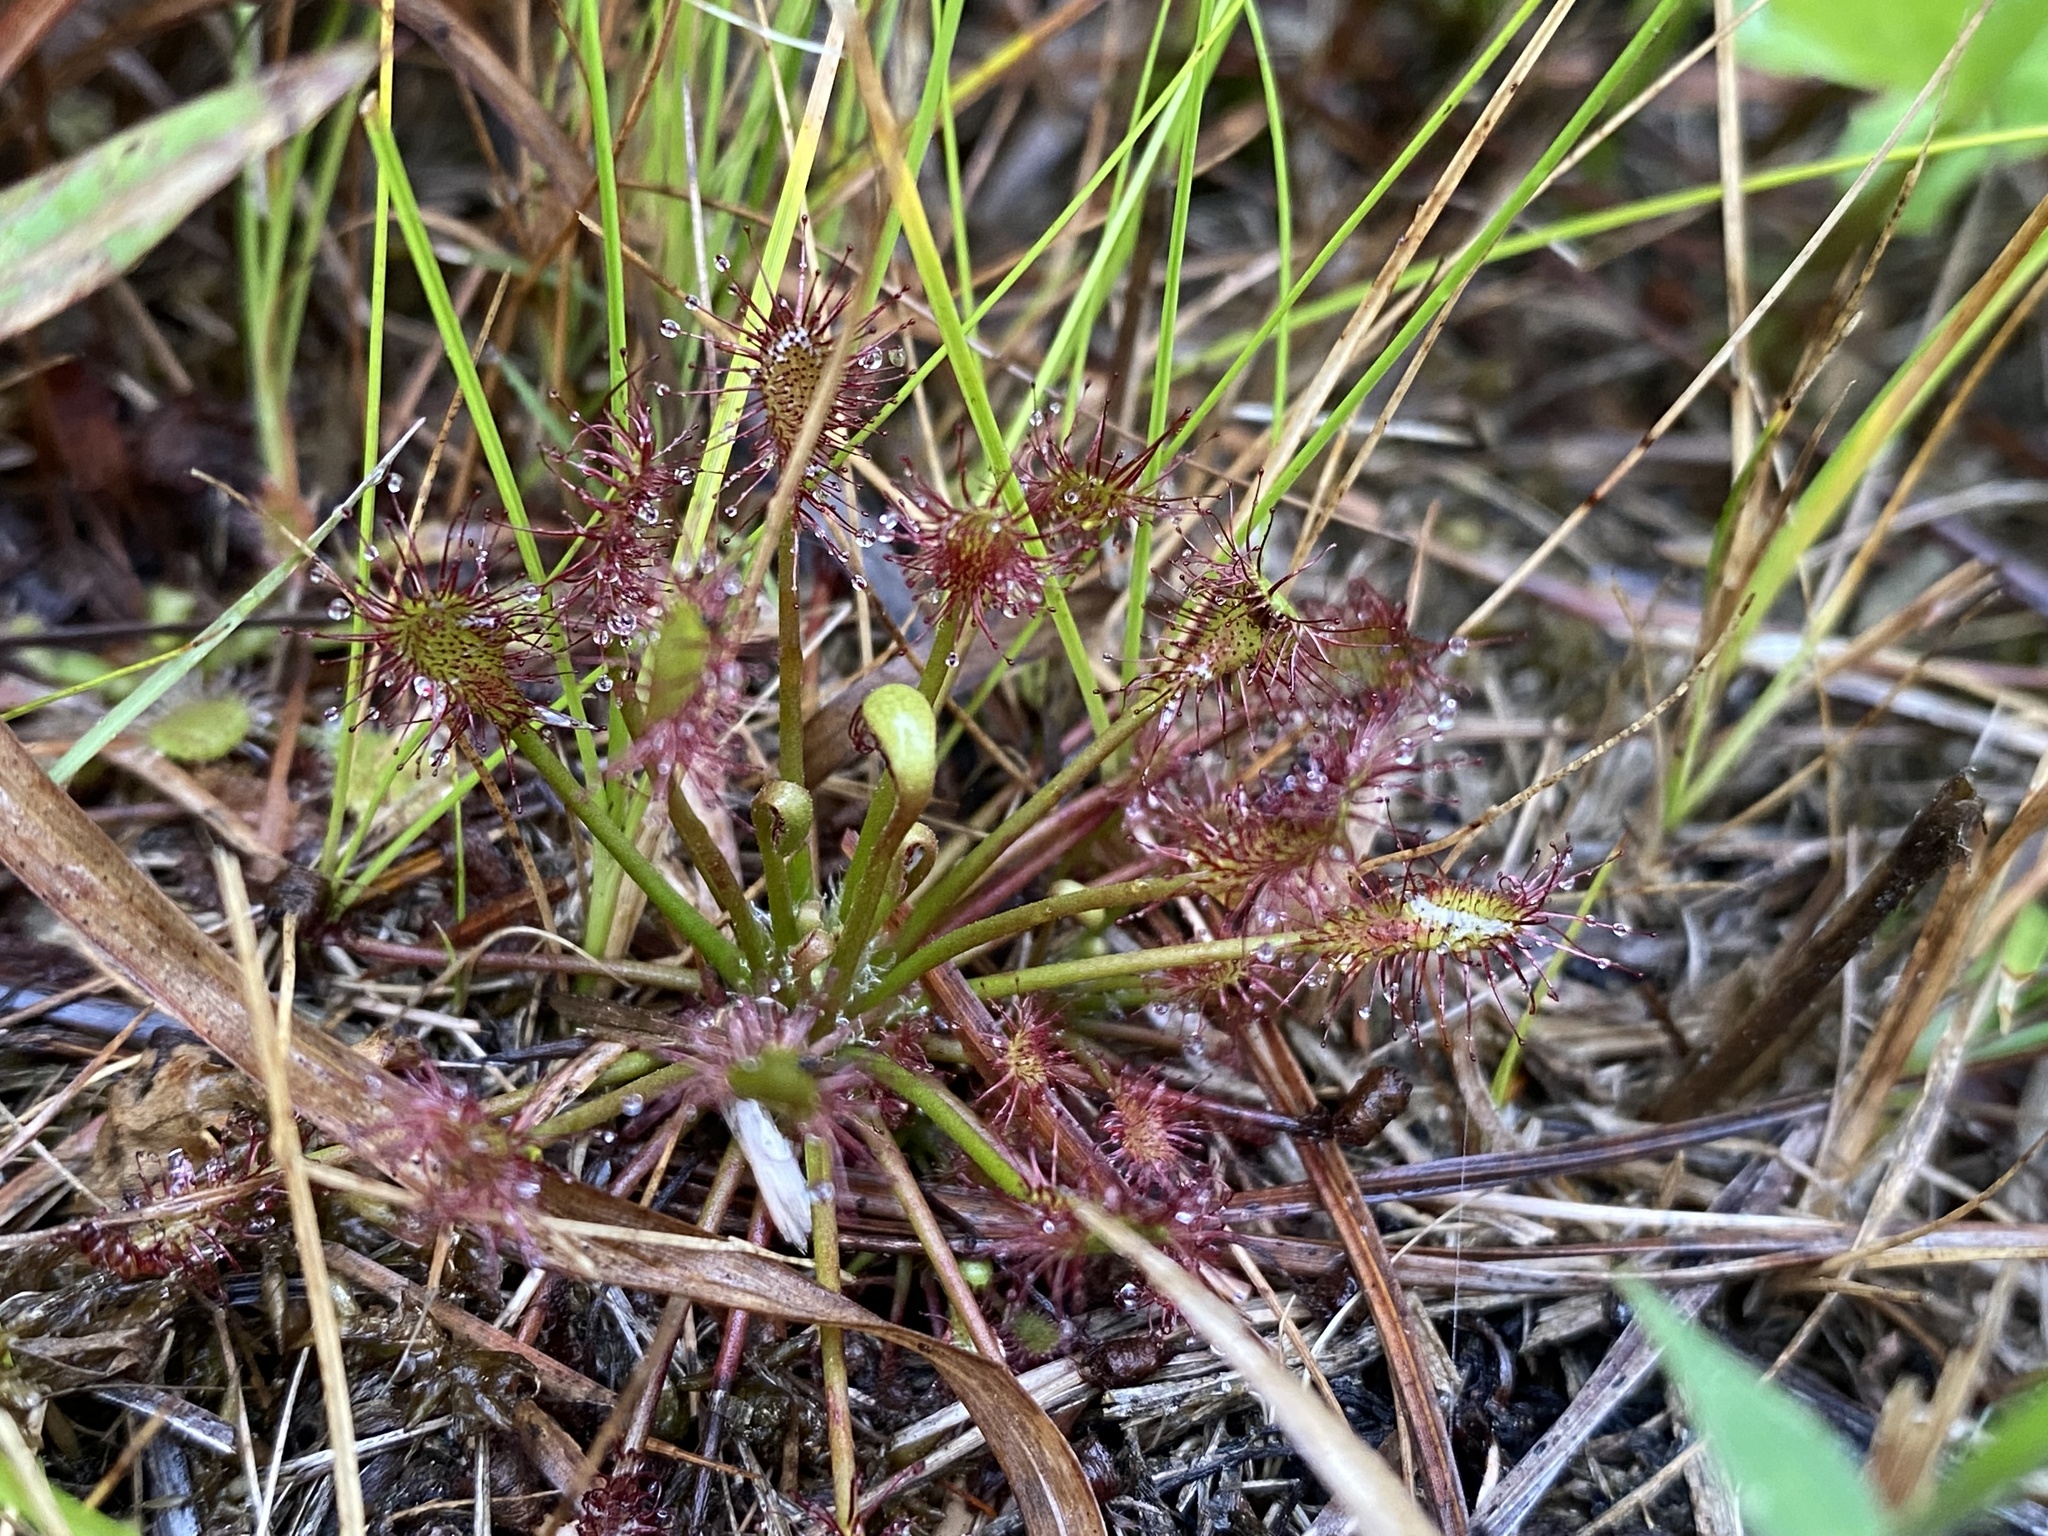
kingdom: Plantae
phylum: Tracheophyta
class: Magnoliopsida
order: Caryophyllales
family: Droseraceae
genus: Drosera
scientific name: Drosera intermedia
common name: Oblong-leaved sundew
